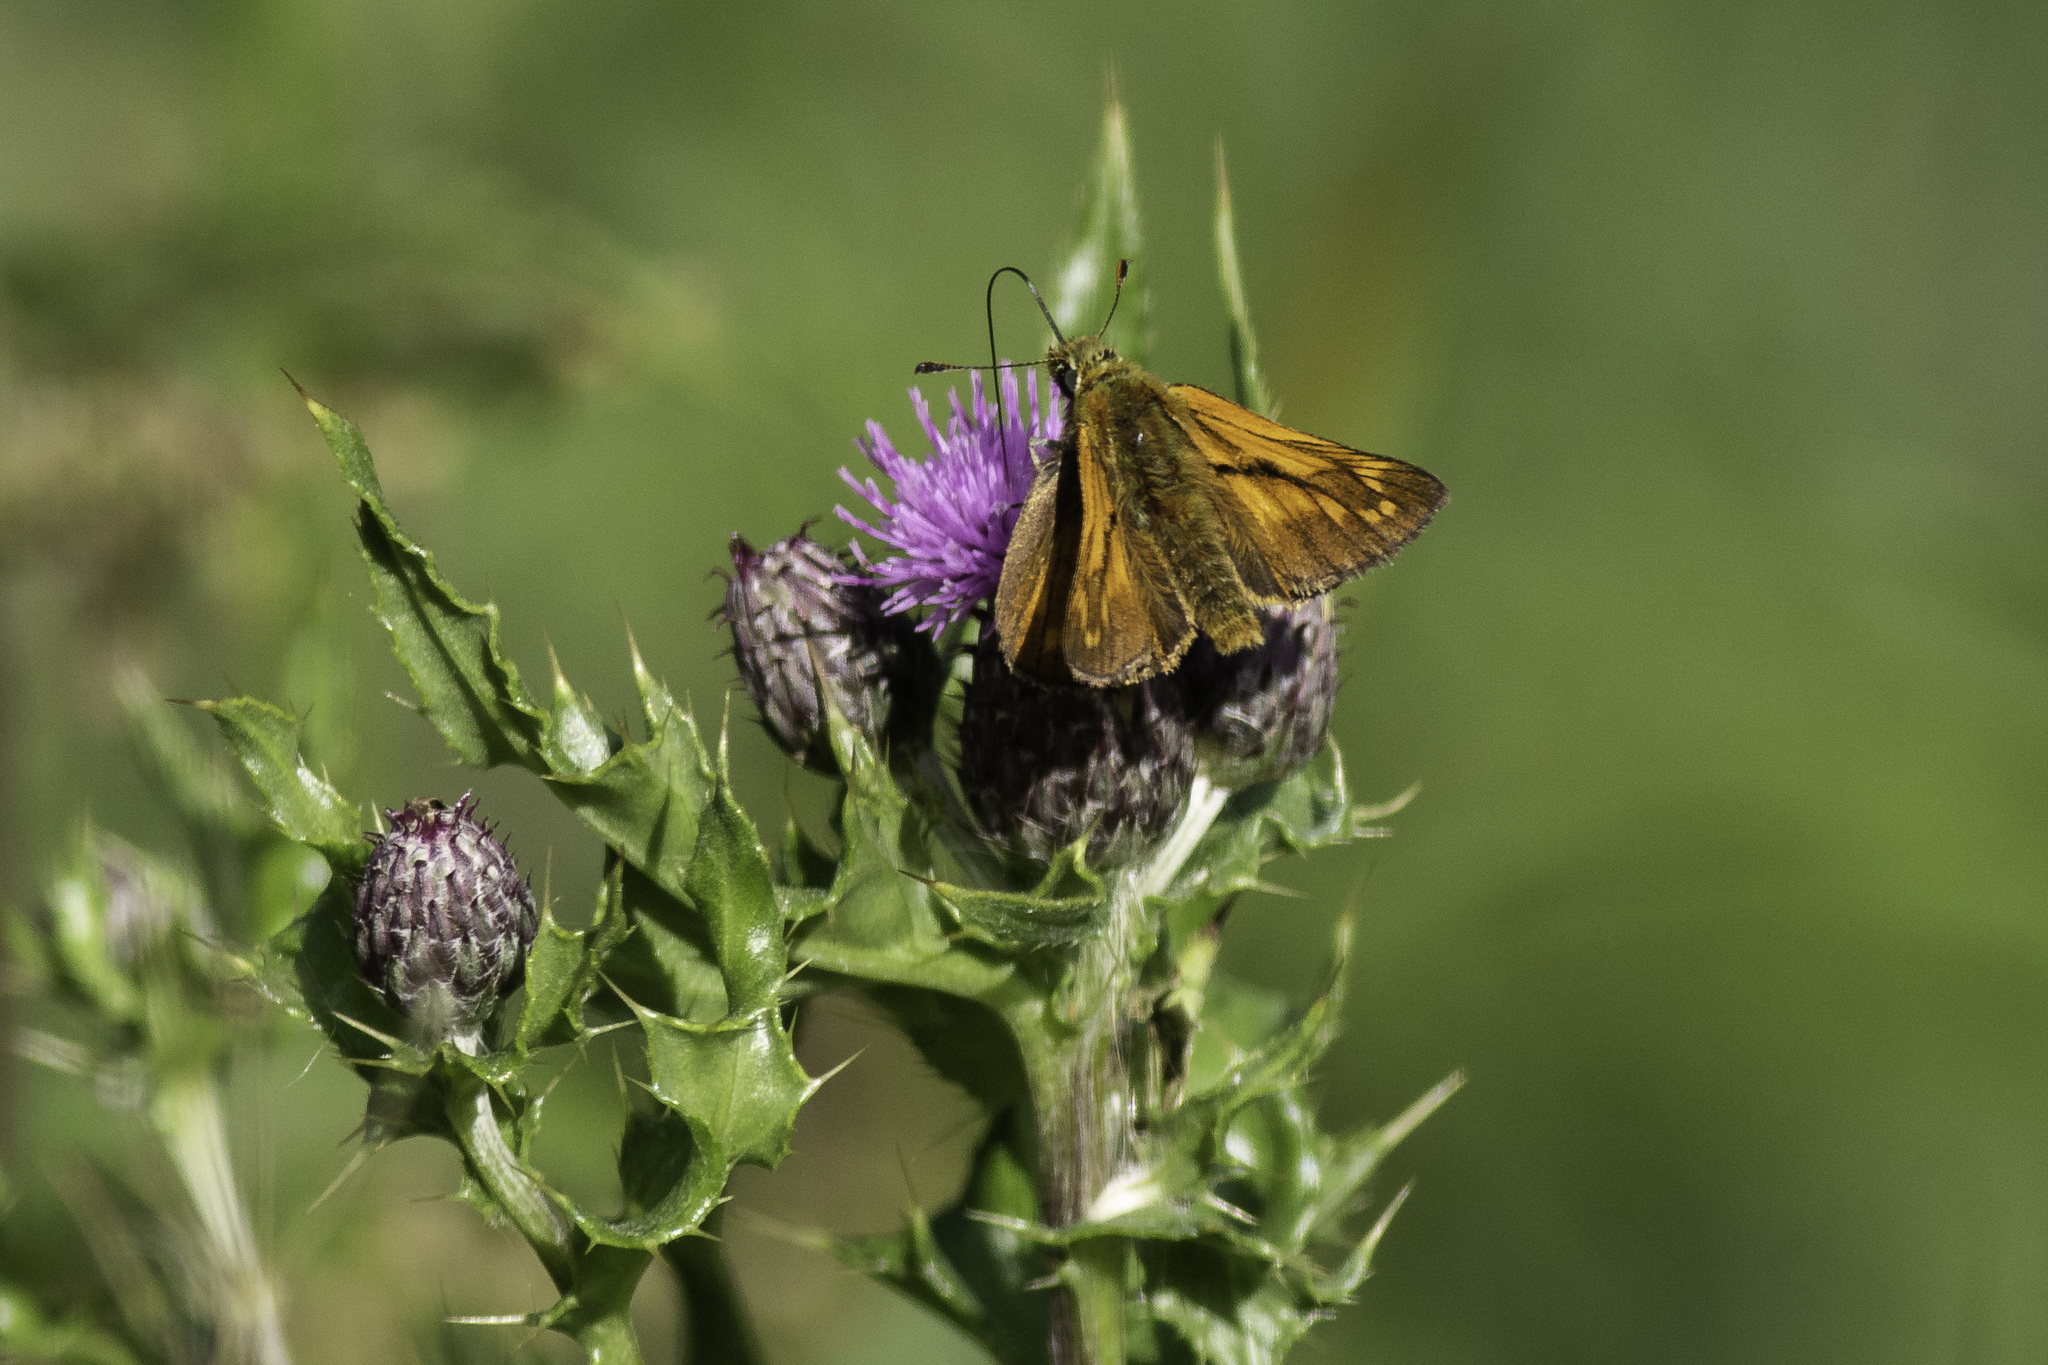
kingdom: Animalia
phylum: Arthropoda
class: Insecta
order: Lepidoptera
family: Hesperiidae
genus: Ochlodes
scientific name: Ochlodes venata
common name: Large skipper
